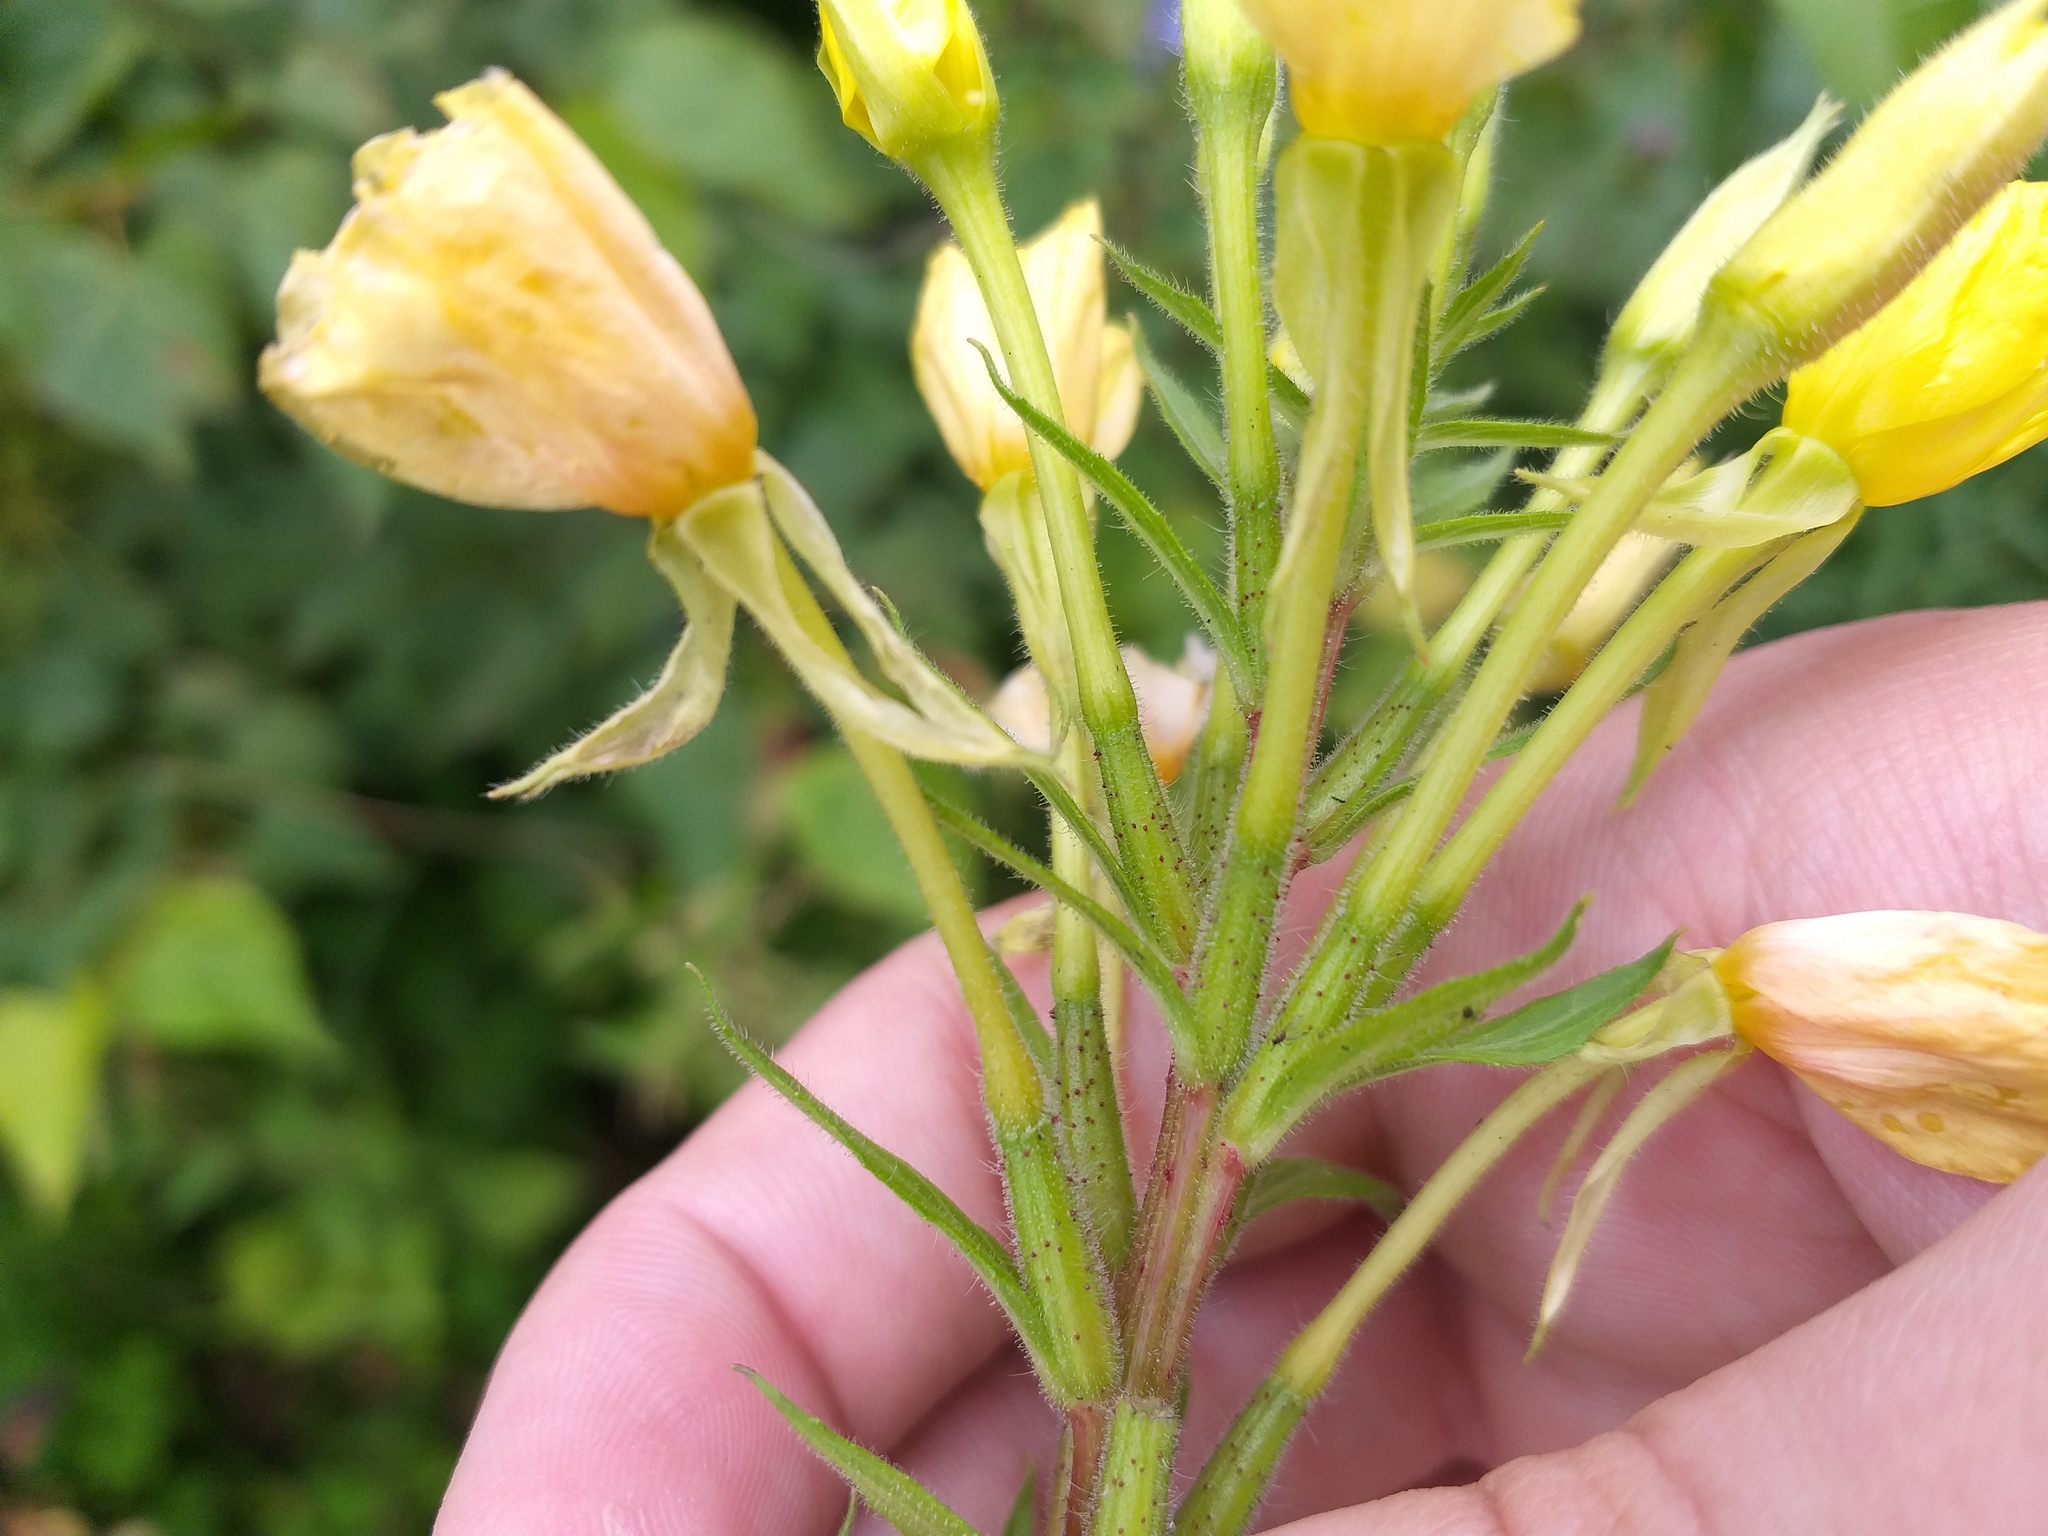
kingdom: Plantae
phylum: Tracheophyta
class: Magnoliopsida
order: Myrtales
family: Onagraceae
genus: Oenothera
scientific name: Oenothera rubricaulis
